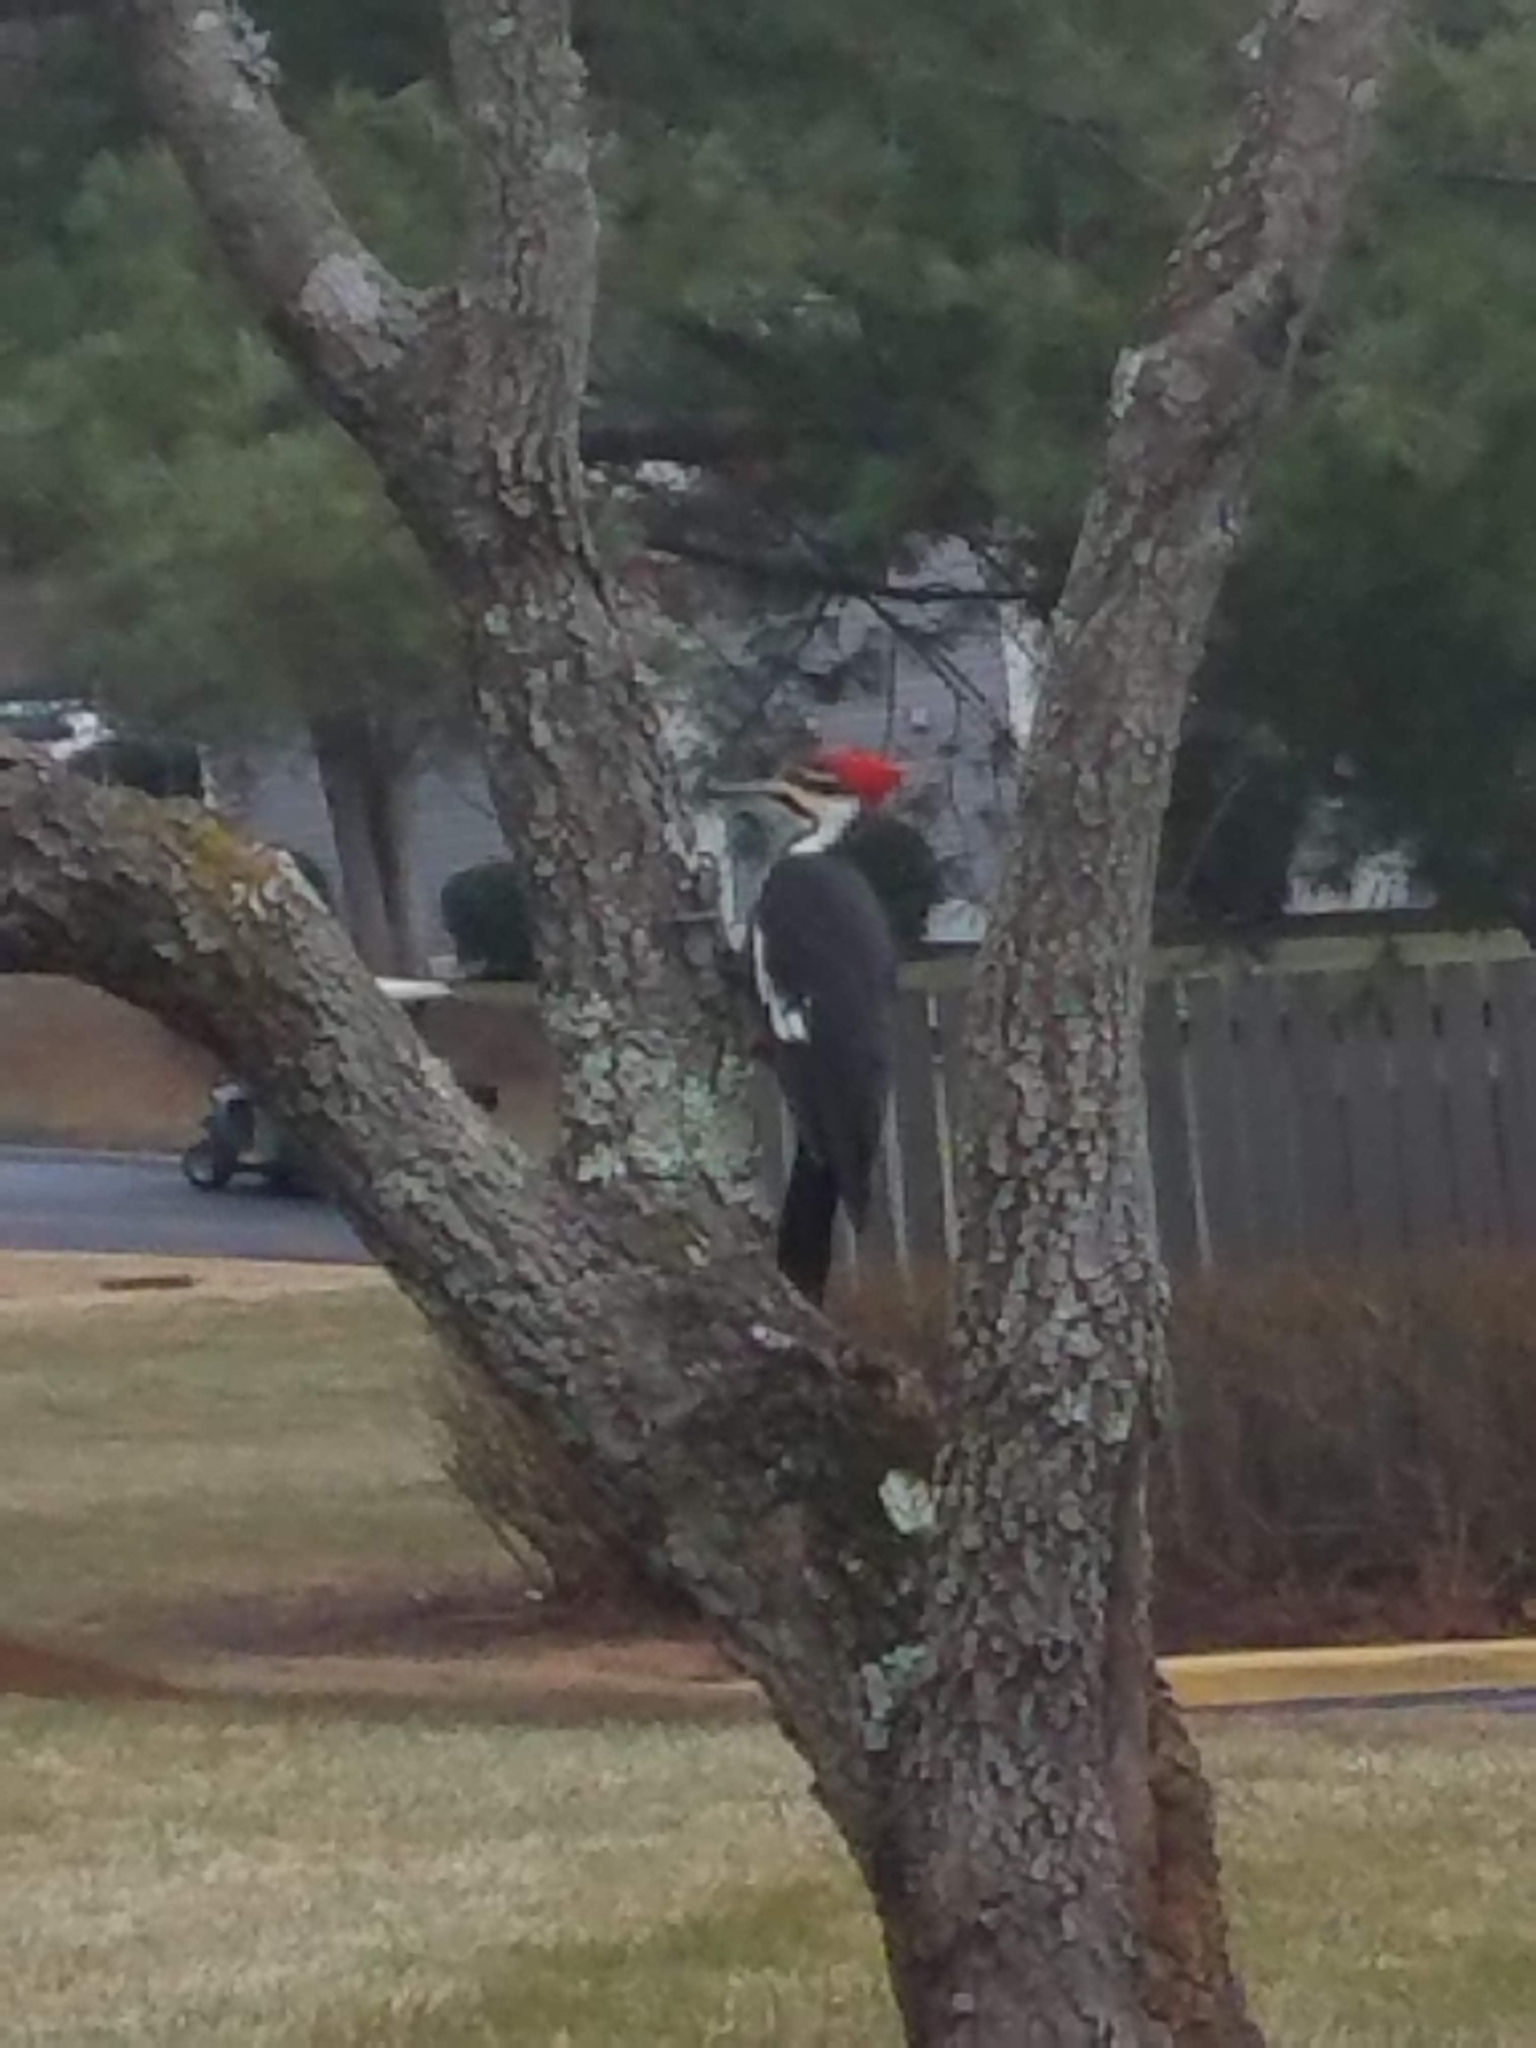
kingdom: Animalia
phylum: Chordata
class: Aves
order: Piciformes
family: Picidae
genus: Dryocopus
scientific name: Dryocopus pileatus
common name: Pileated woodpecker
